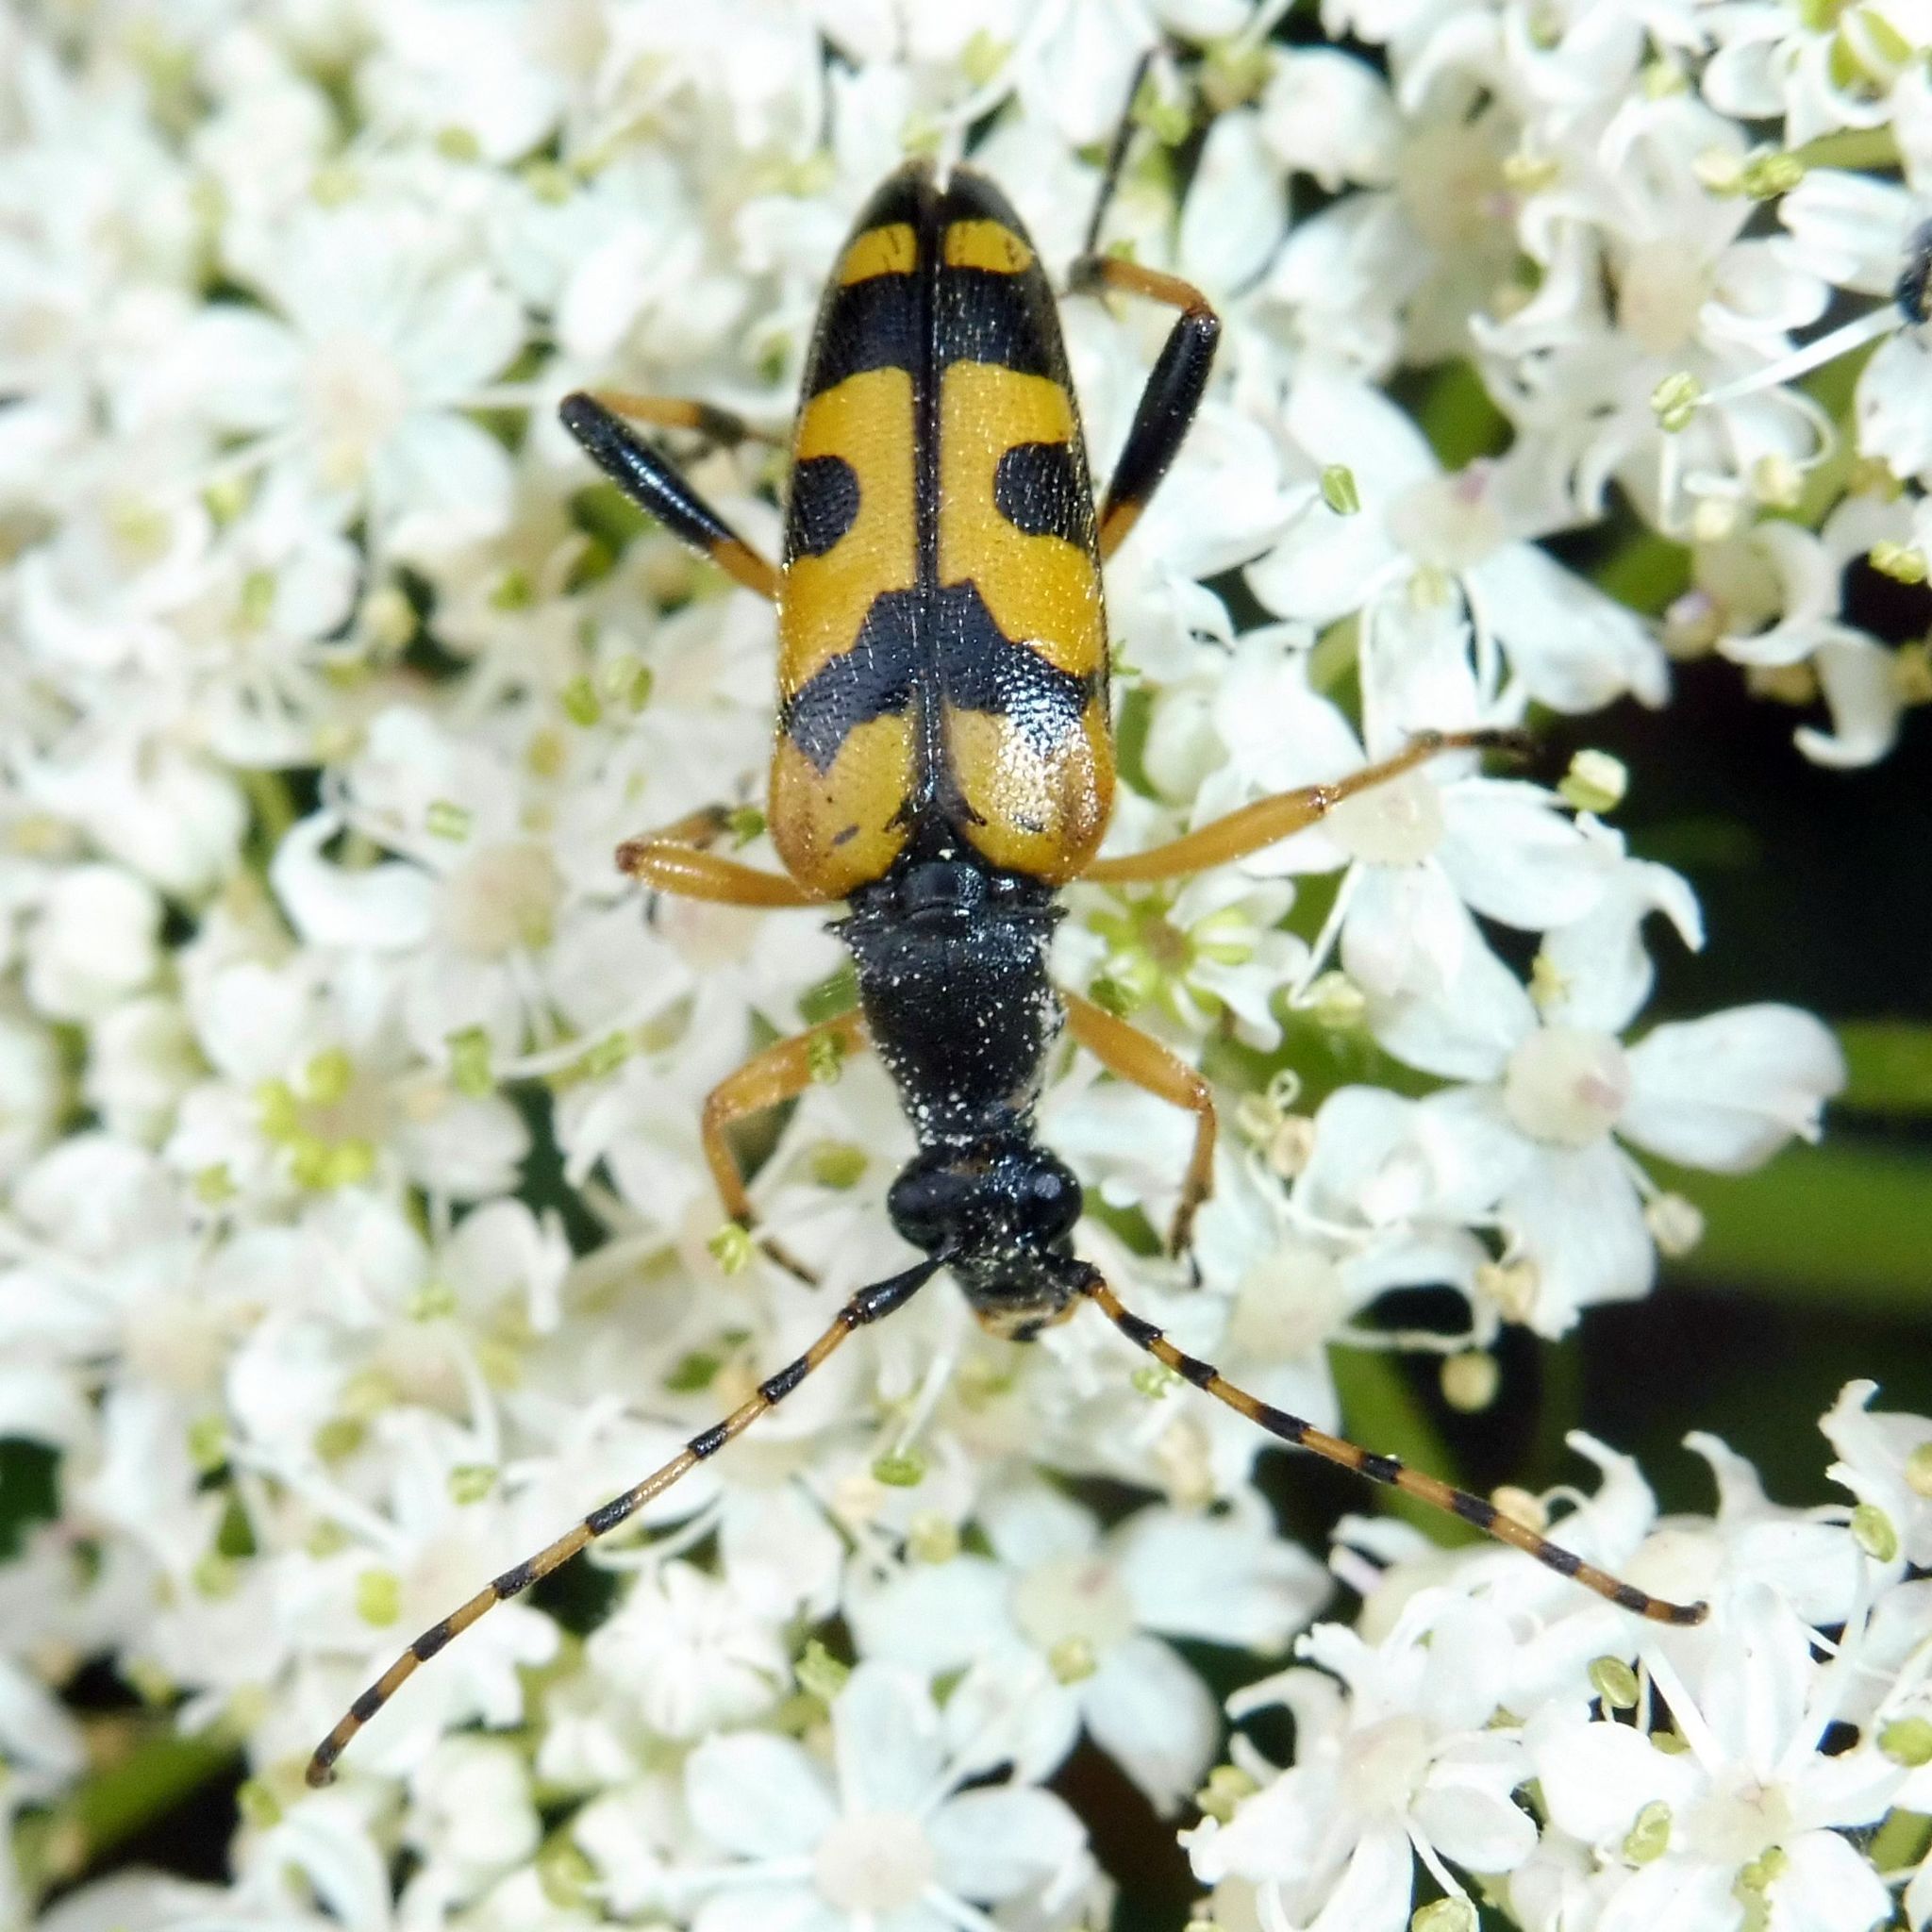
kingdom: Animalia
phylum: Arthropoda
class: Insecta
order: Coleoptera
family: Cerambycidae
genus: Rutpela
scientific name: Rutpela maculata
